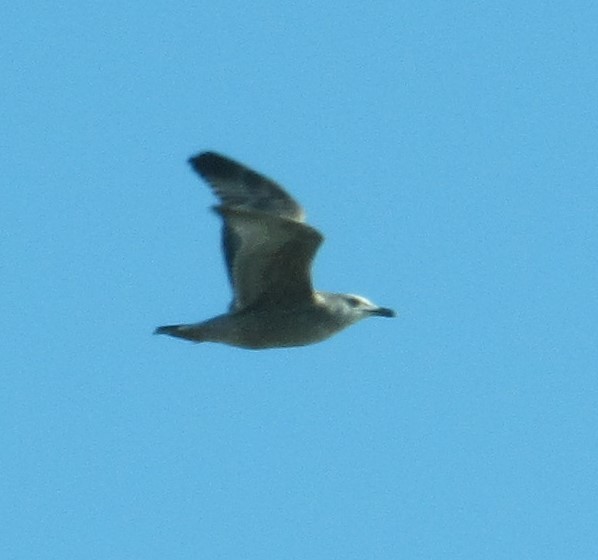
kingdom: Animalia
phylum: Chordata
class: Aves
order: Charadriiformes
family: Laridae
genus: Larus
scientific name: Larus argentatus
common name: Herring gull
